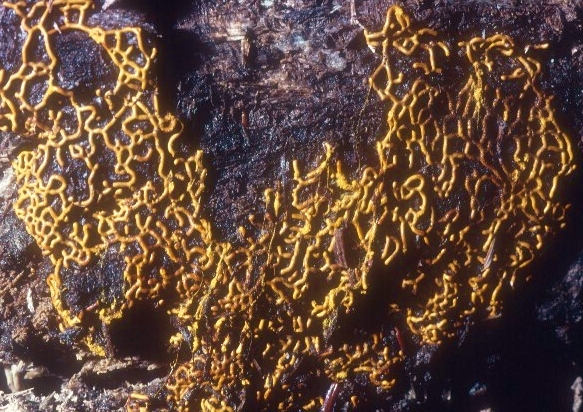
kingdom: Protozoa
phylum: Mycetozoa
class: Myxomycetes
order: Trichiales
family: Arcyriaceae
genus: Hemitrichia
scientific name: Hemitrichia serpula
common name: Pretzel slime mold
